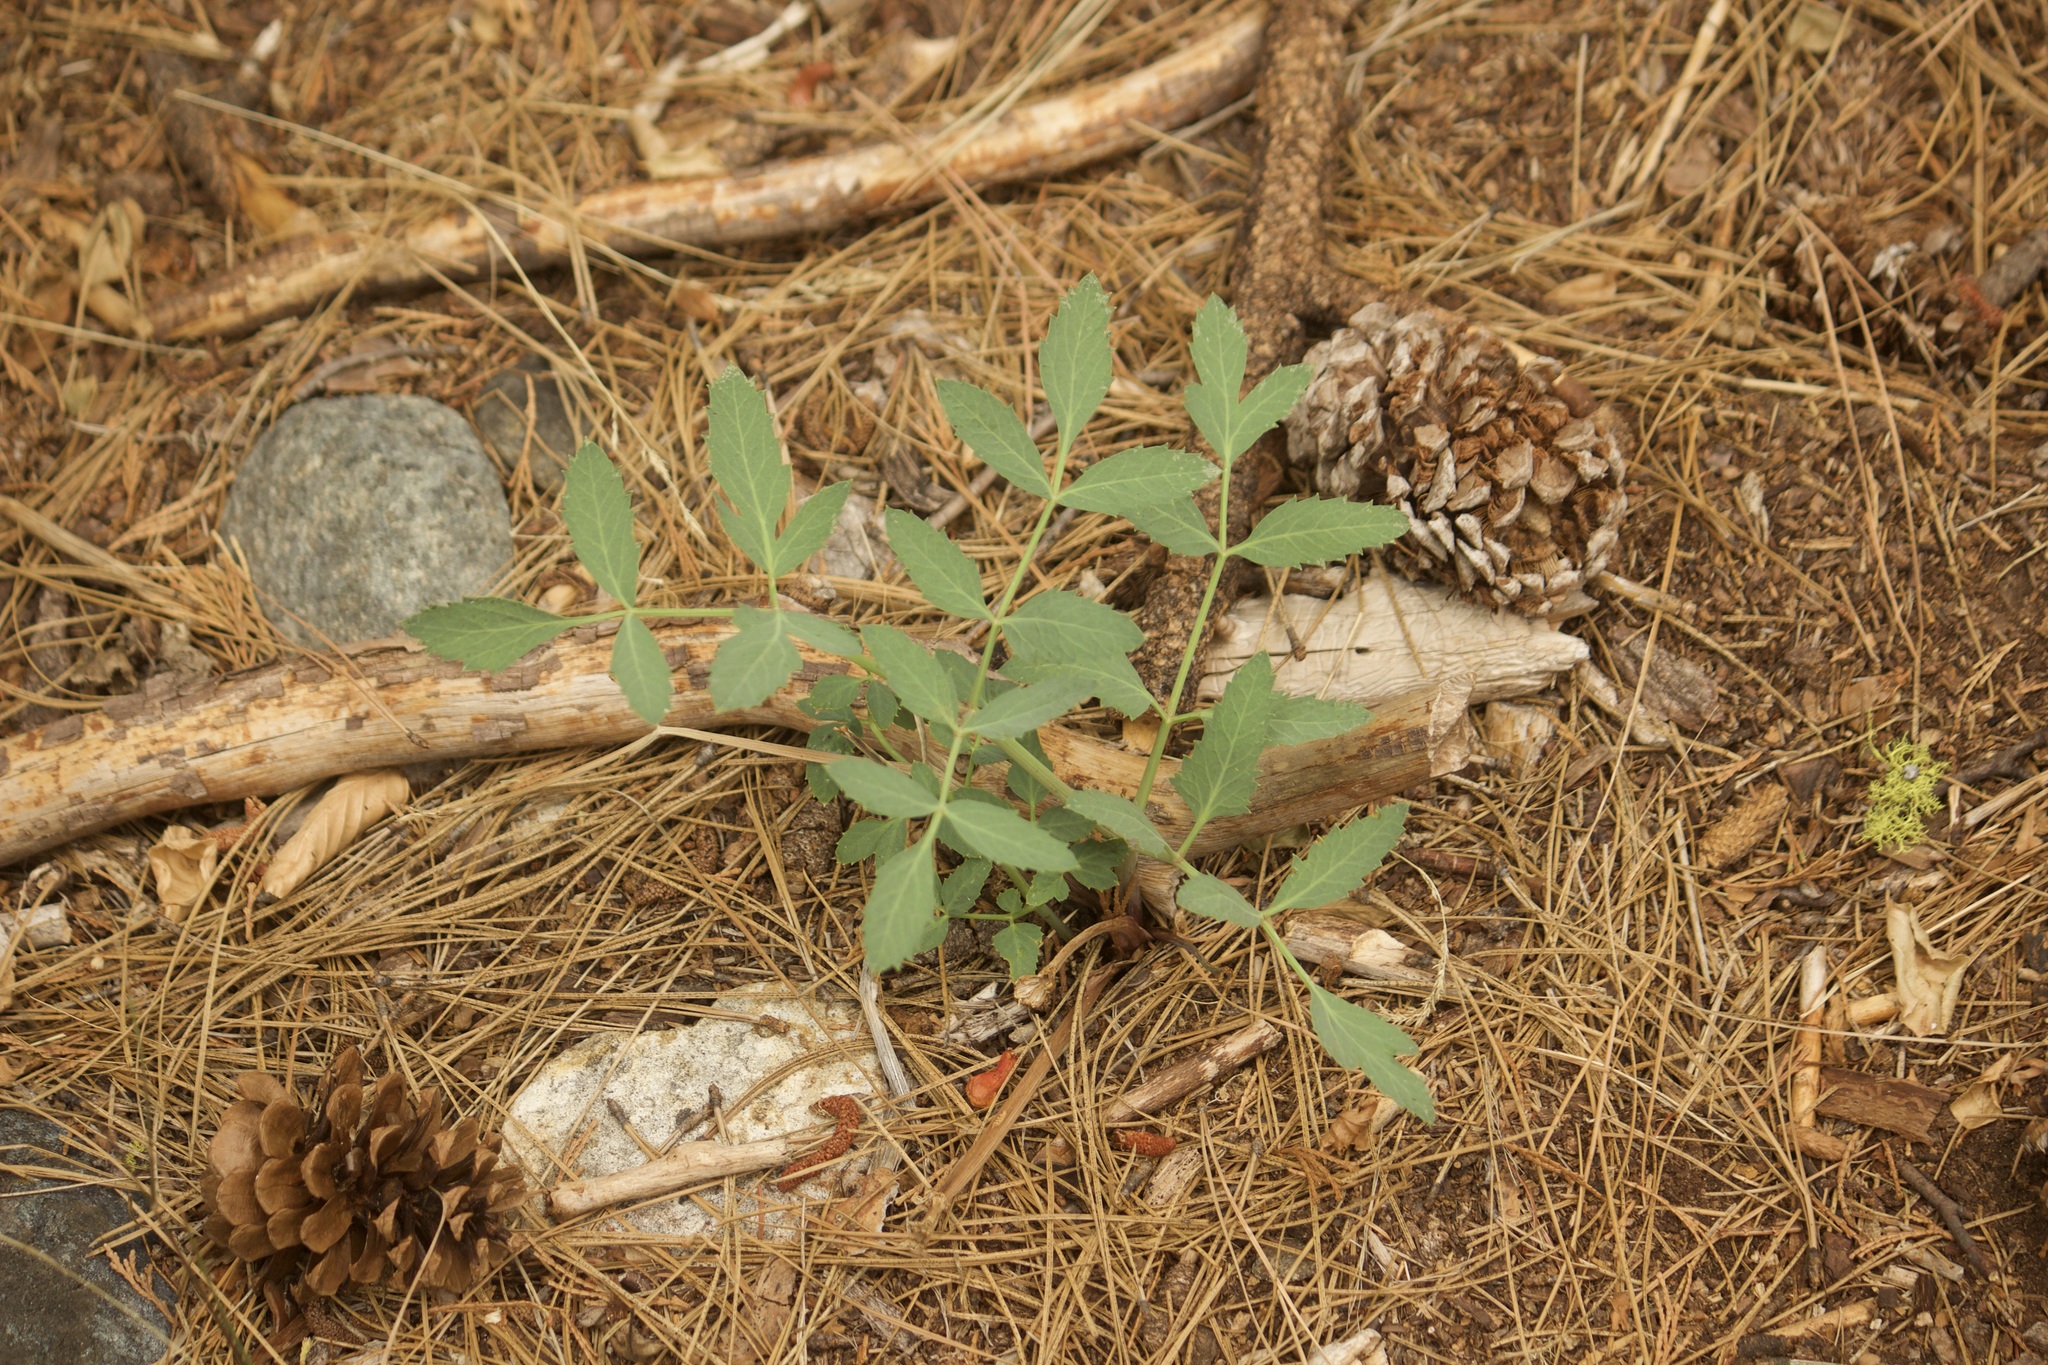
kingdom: Plantae
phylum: Tracheophyta
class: Magnoliopsida
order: Apiales
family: Apiaceae
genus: Angelica
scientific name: Angelica tomentosa
